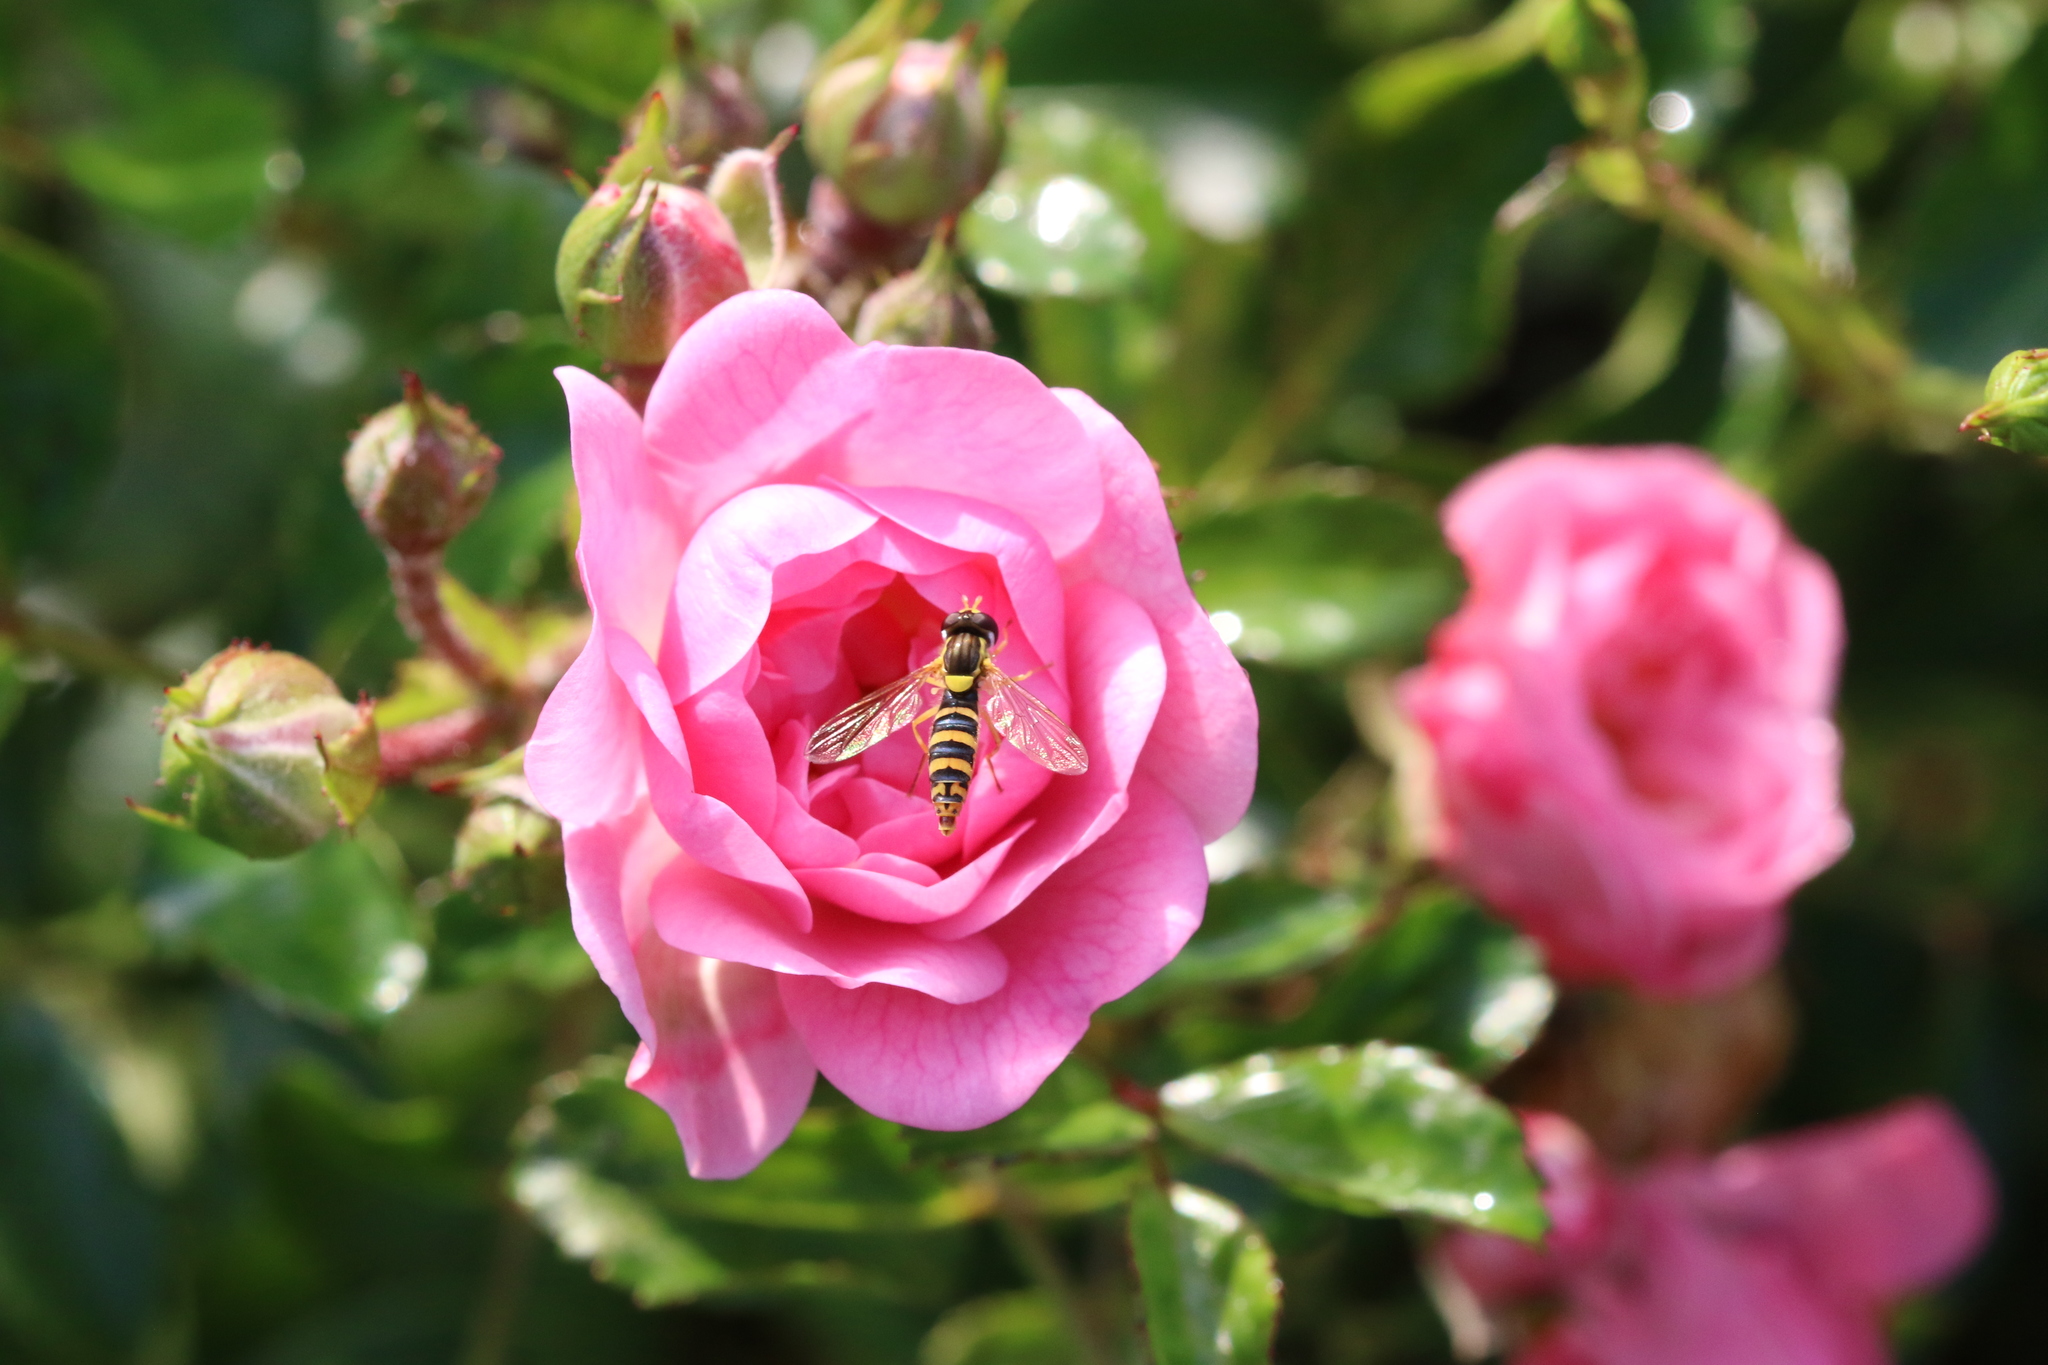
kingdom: Animalia
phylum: Arthropoda
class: Insecta
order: Diptera
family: Syrphidae
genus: Sphaerophoria
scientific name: Sphaerophoria
